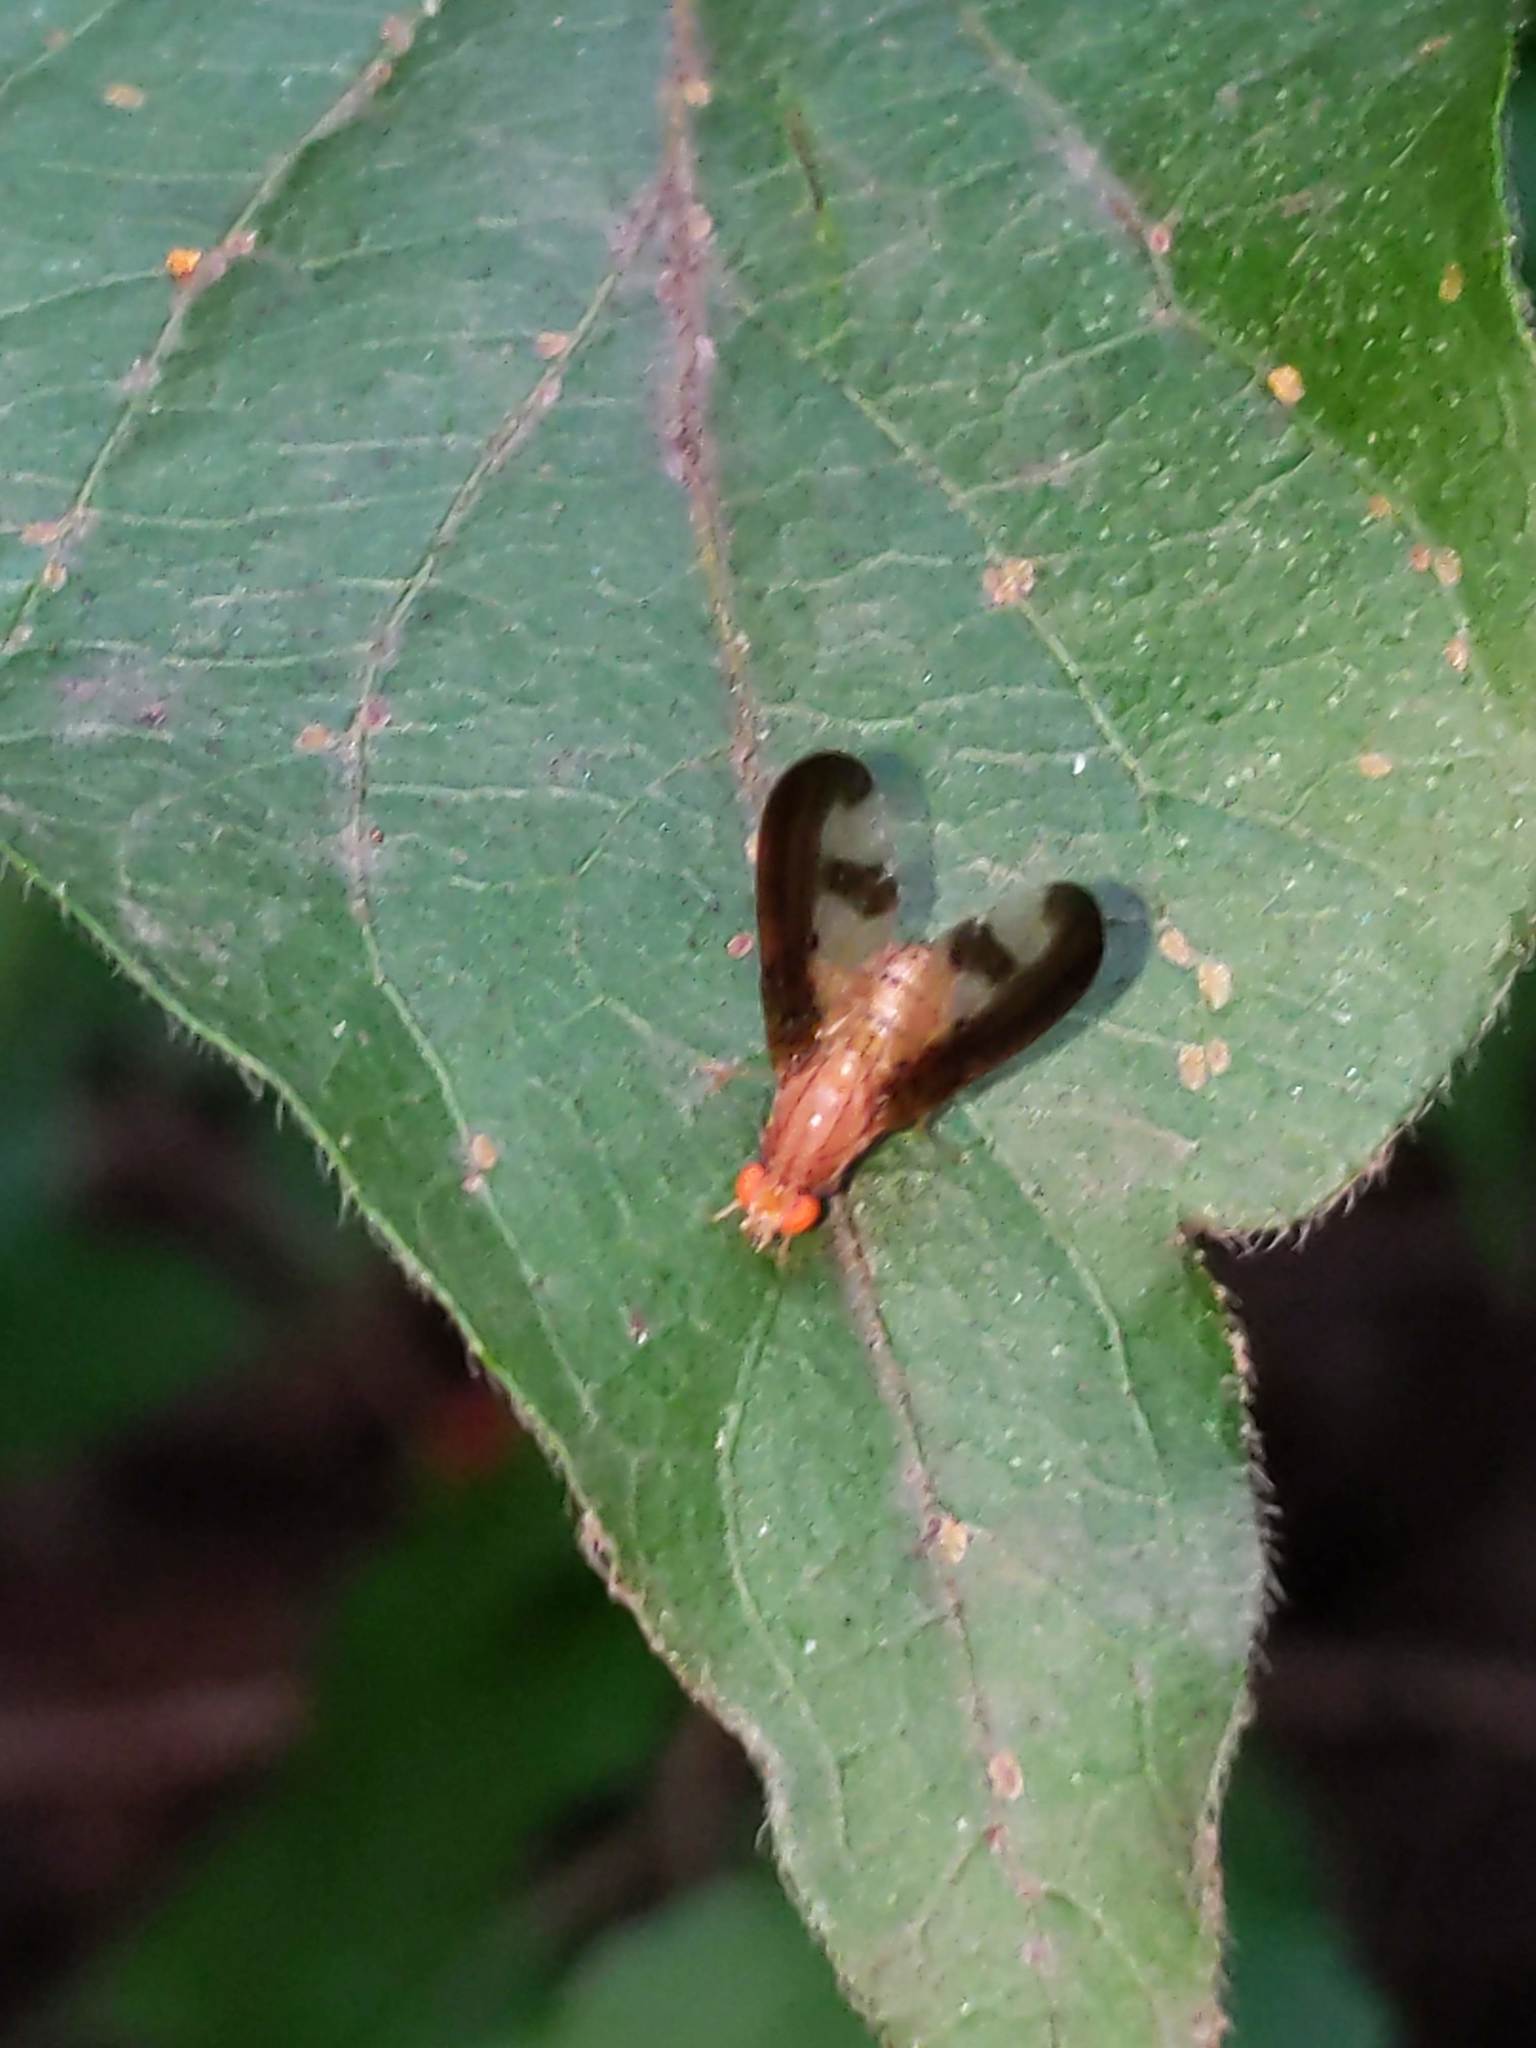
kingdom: Animalia
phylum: Arthropoda
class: Insecta
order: Diptera
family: Pallopteridae
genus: Toxonevra
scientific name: Toxonevra superba
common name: Antlered flutter fly
